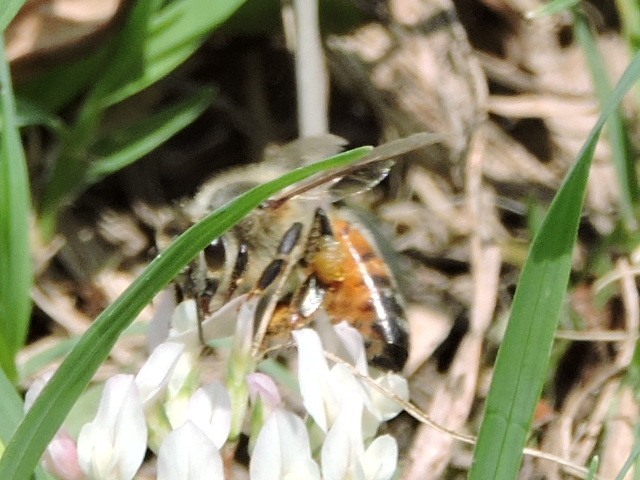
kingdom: Animalia
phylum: Arthropoda
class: Insecta
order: Hymenoptera
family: Apidae
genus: Apis
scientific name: Apis mellifera
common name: Honey bee
